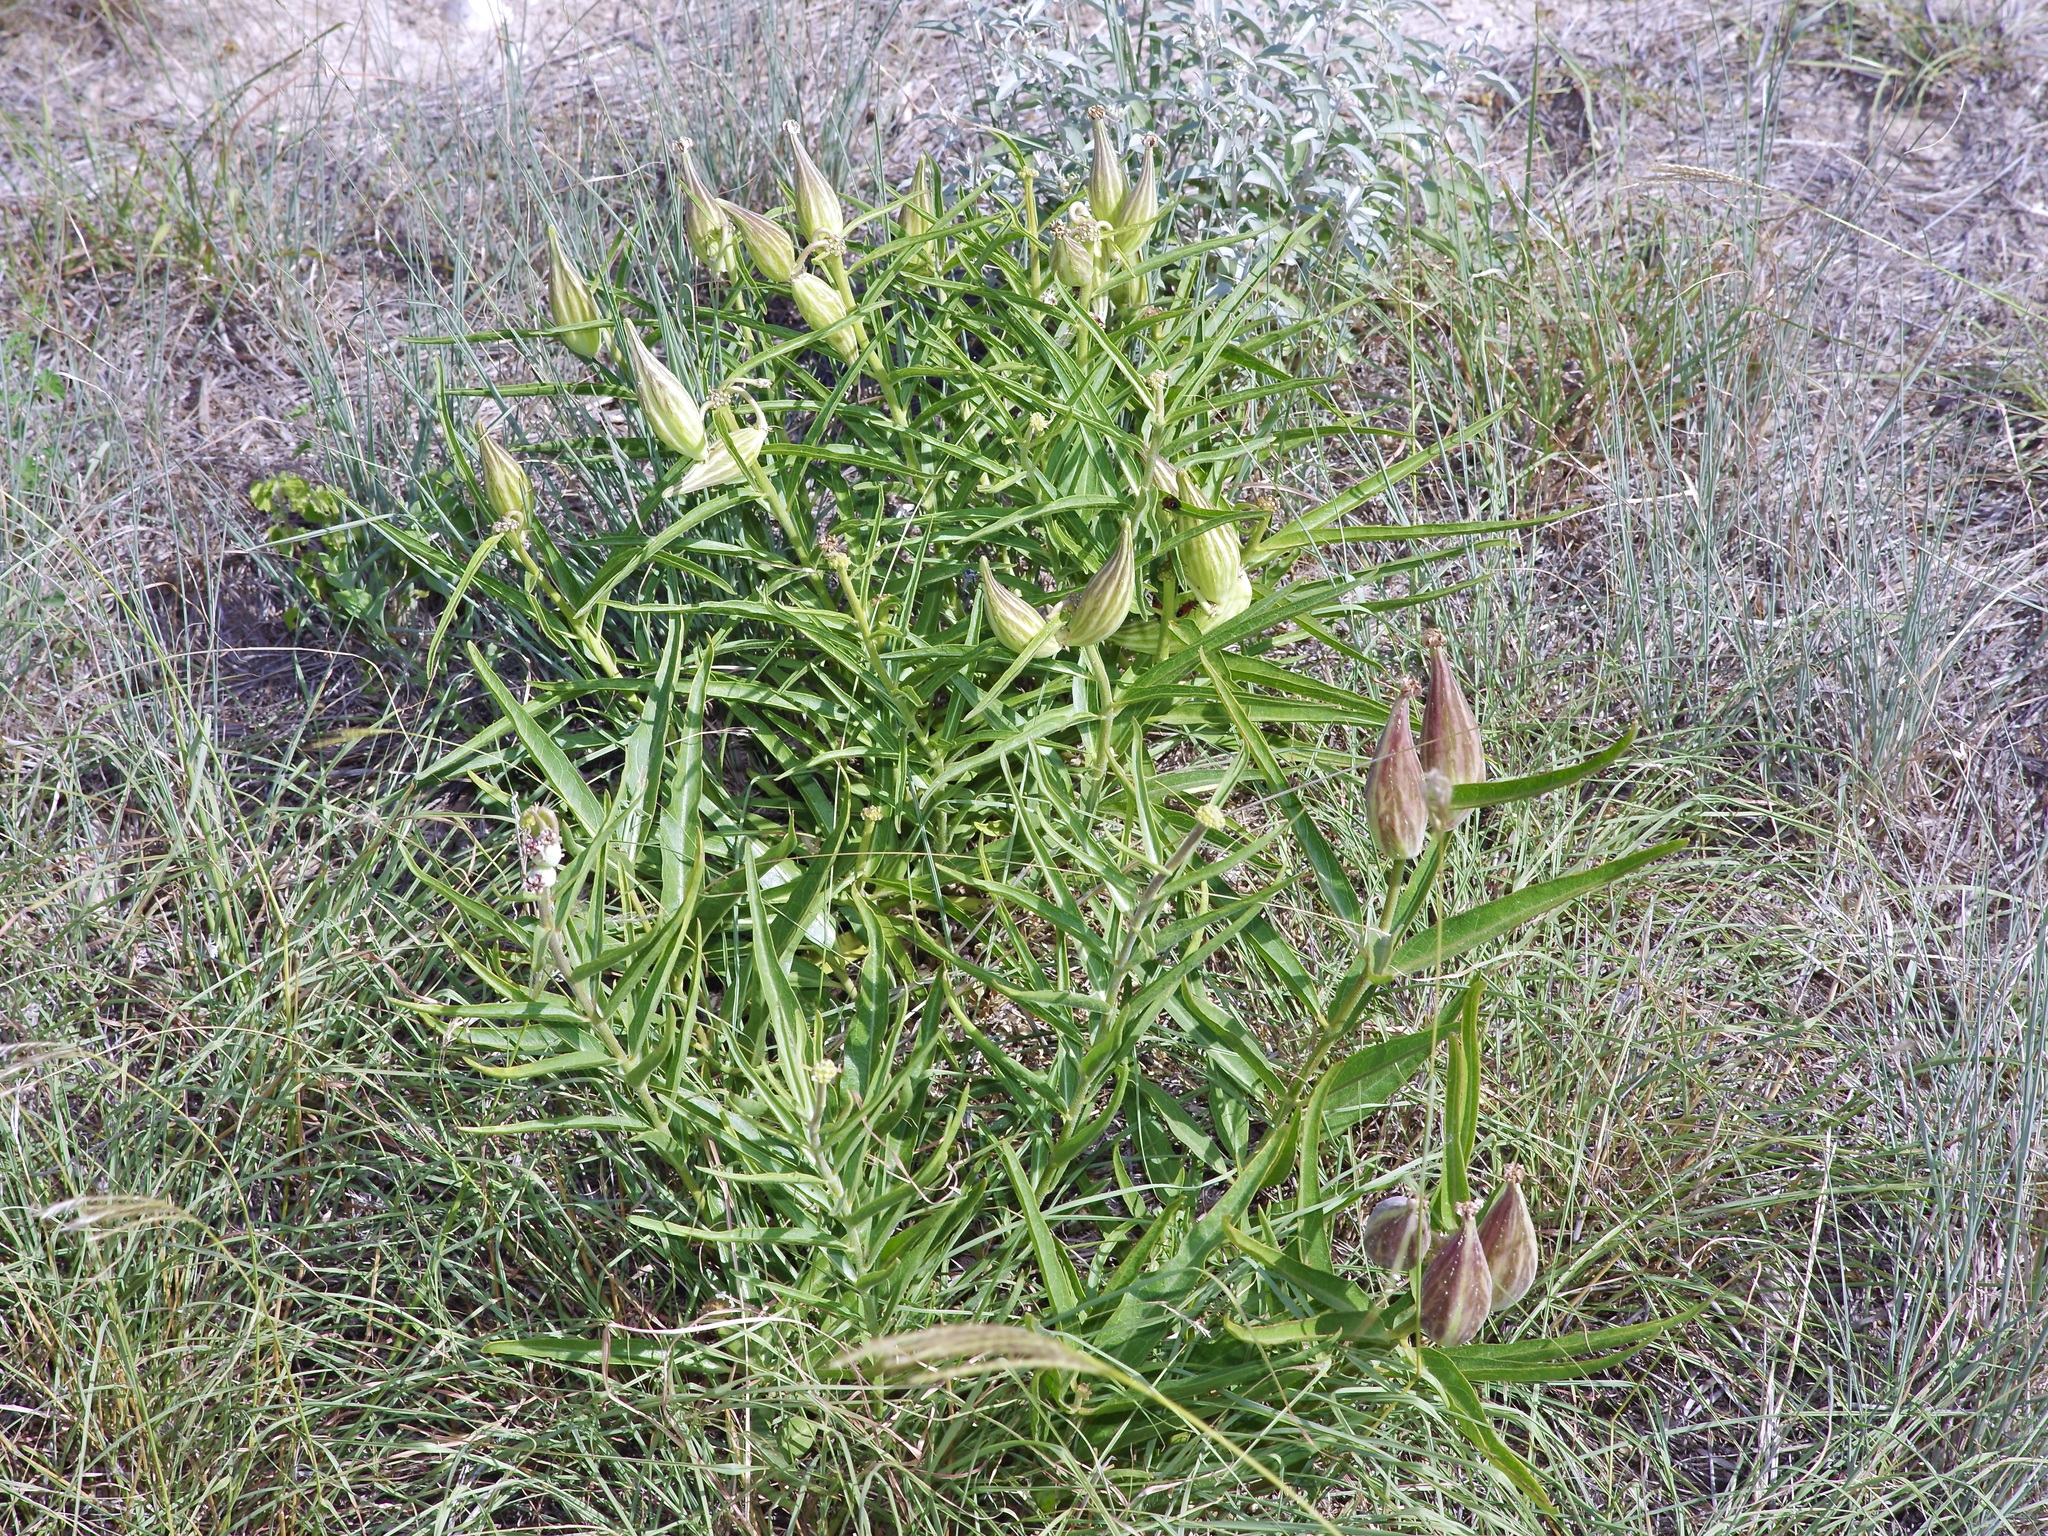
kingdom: Plantae
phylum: Tracheophyta
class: Magnoliopsida
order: Gentianales
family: Apocynaceae
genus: Asclepias
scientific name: Asclepias asperula
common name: Antelope horns
